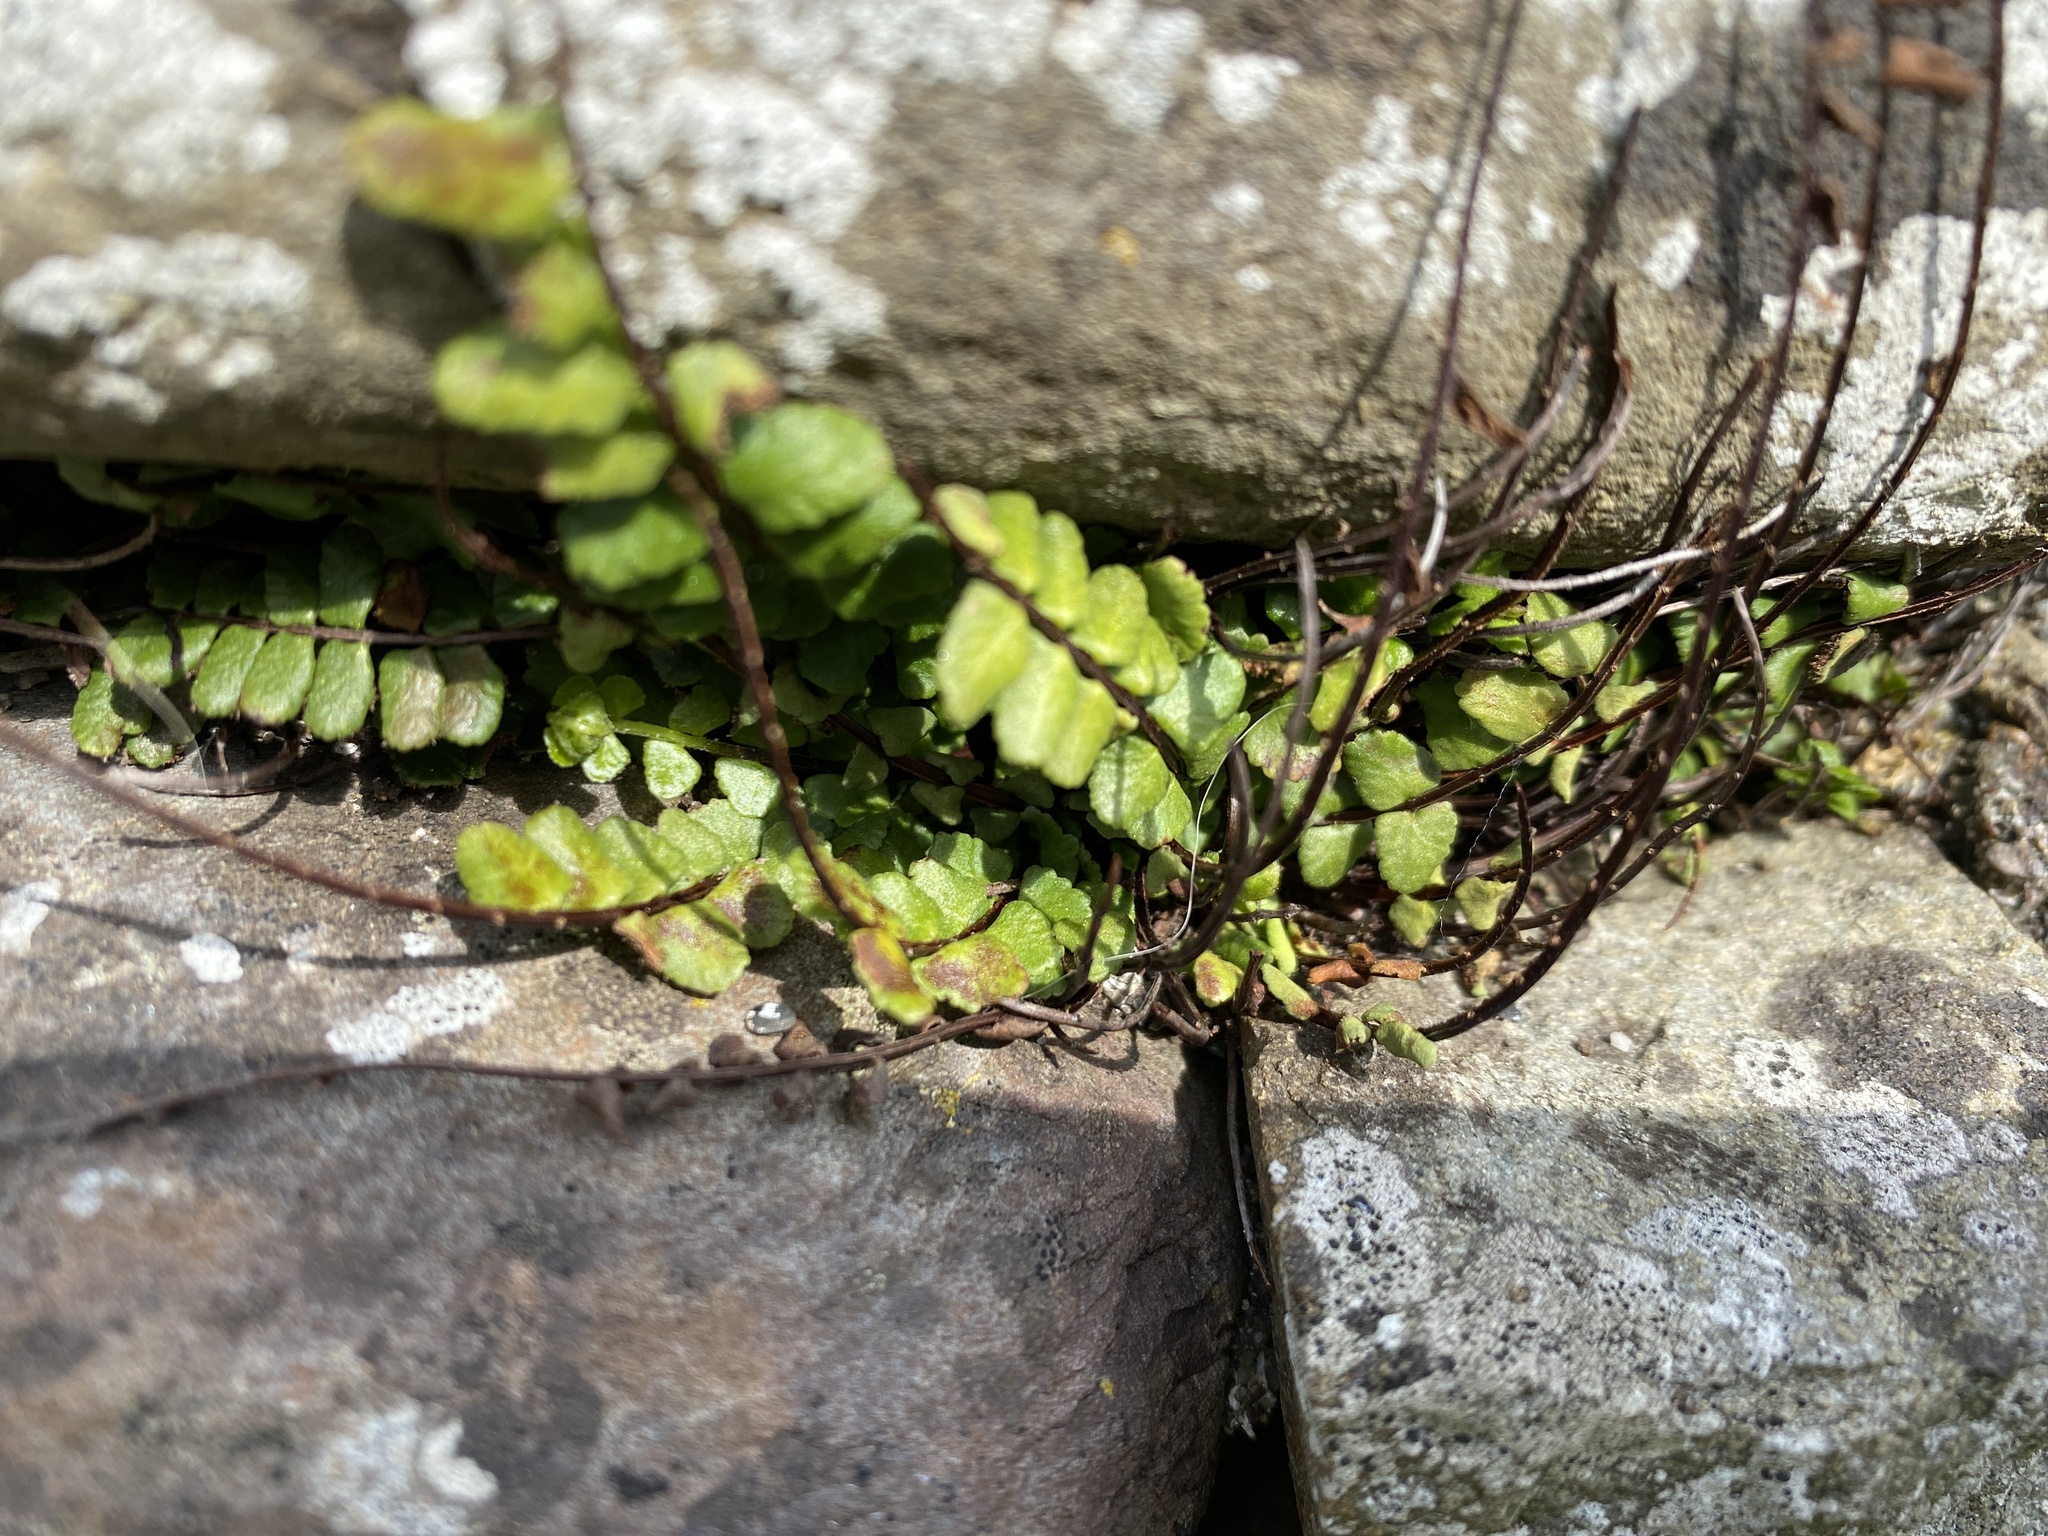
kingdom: Plantae
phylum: Tracheophyta
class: Polypodiopsida
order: Polypodiales
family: Aspleniaceae
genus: Asplenium
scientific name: Asplenium trichomanes
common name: Maidenhair spleenwort
